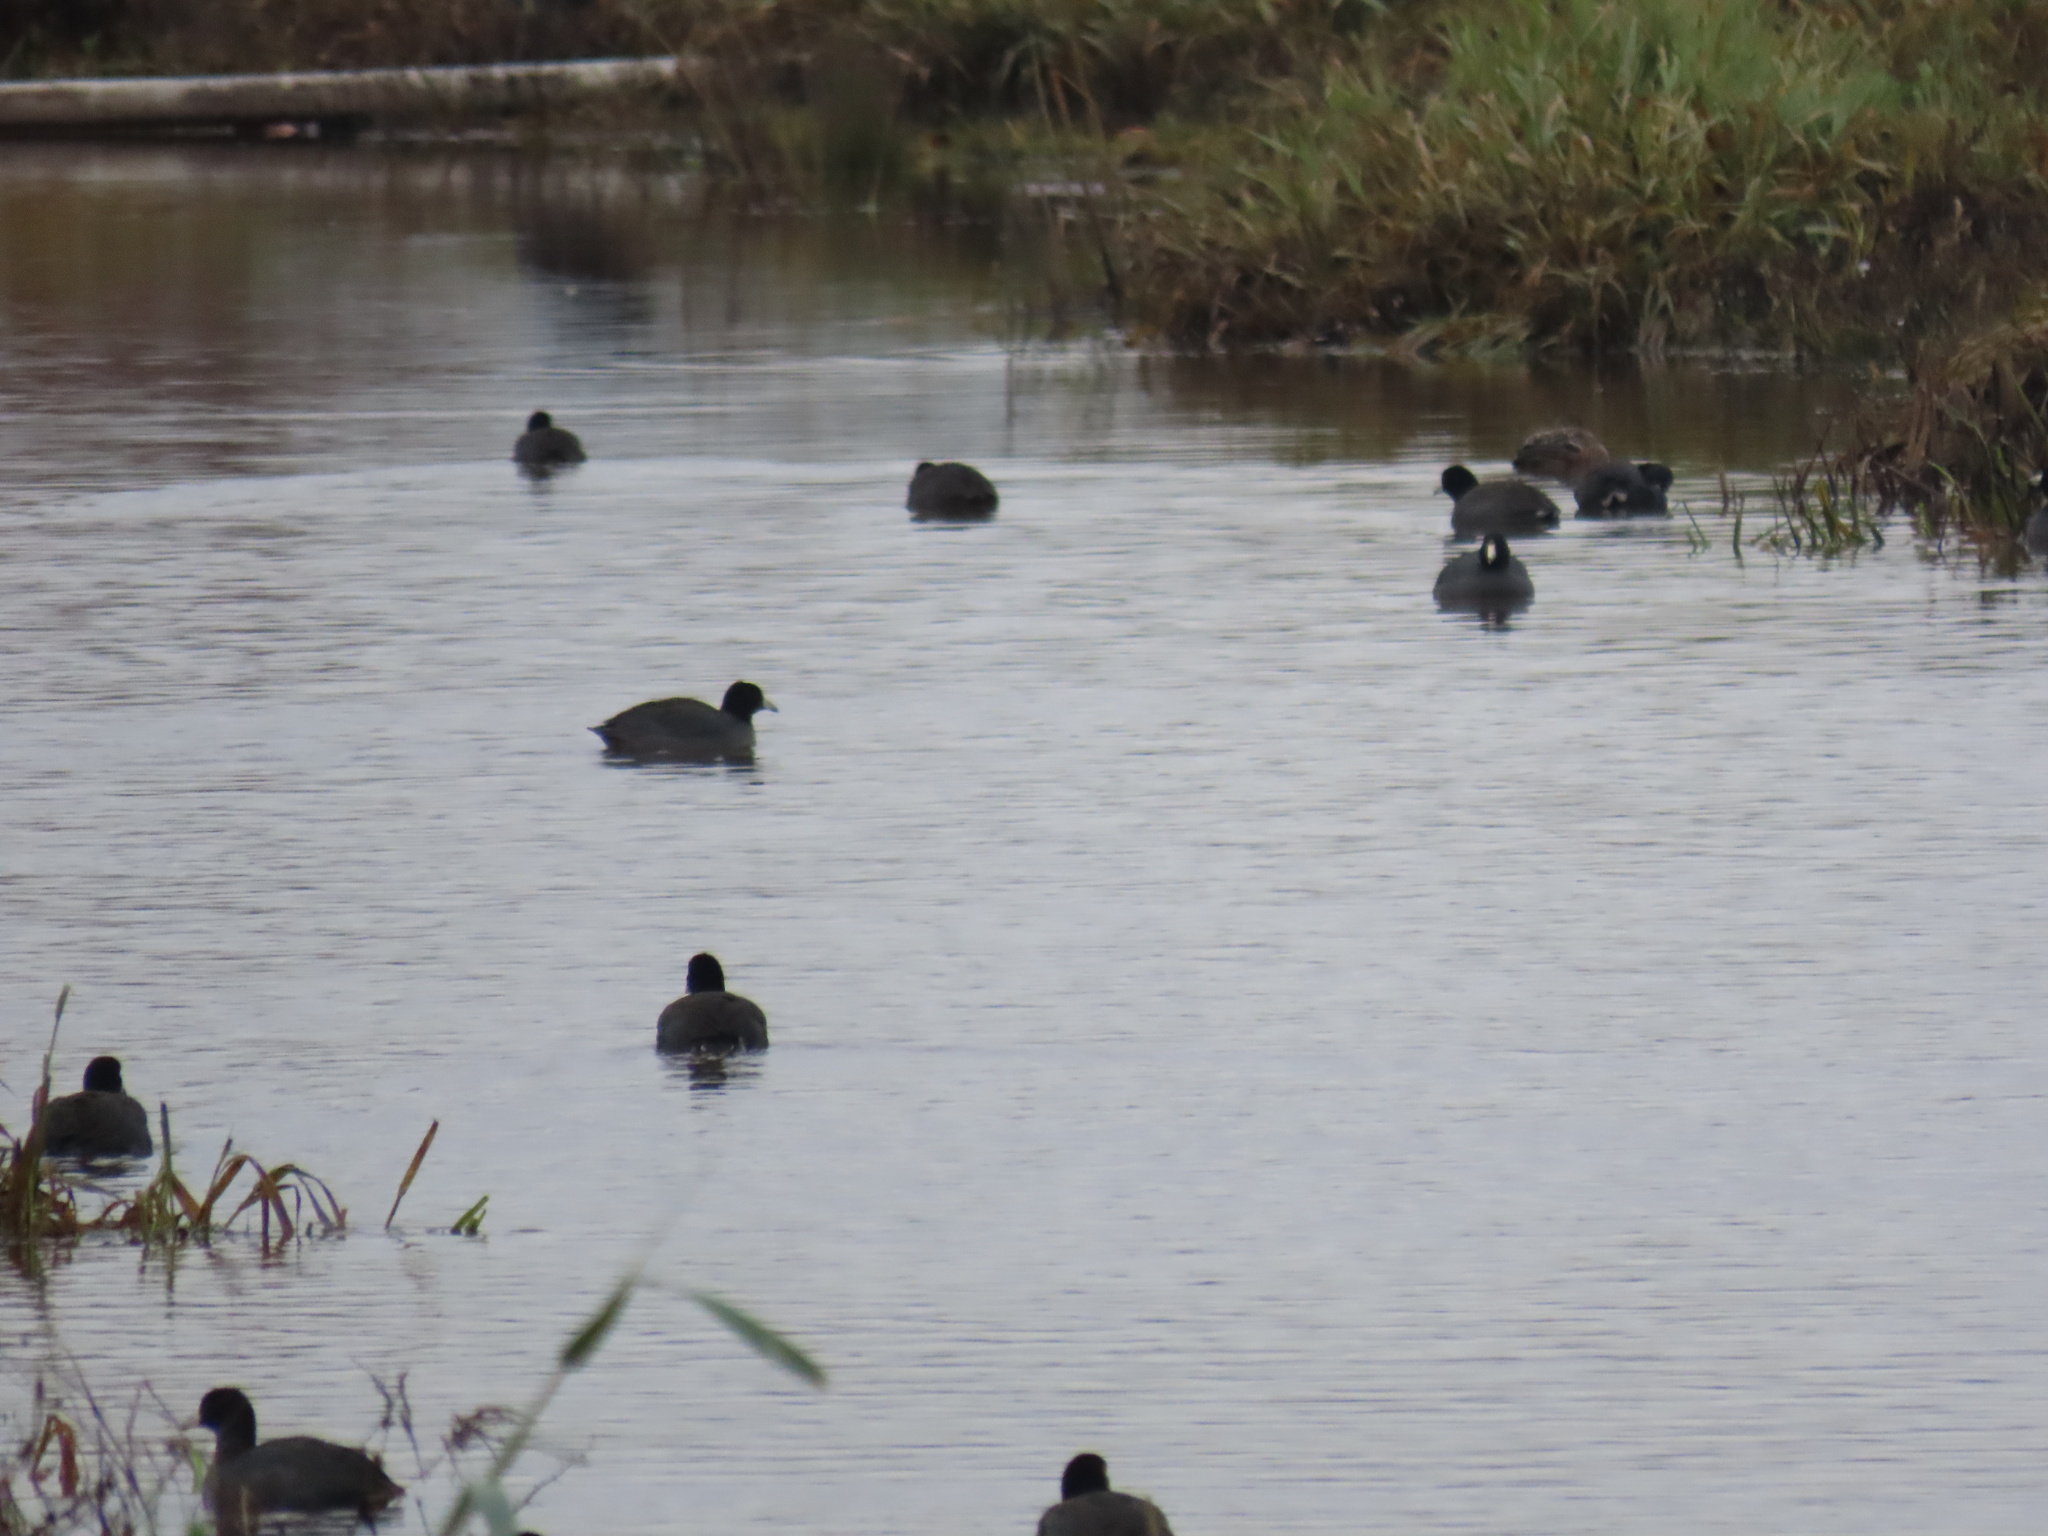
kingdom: Animalia
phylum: Chordata
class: Aves
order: Gruiformes
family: Rallidae
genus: Fulica
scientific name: Fulica americana
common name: American coot
